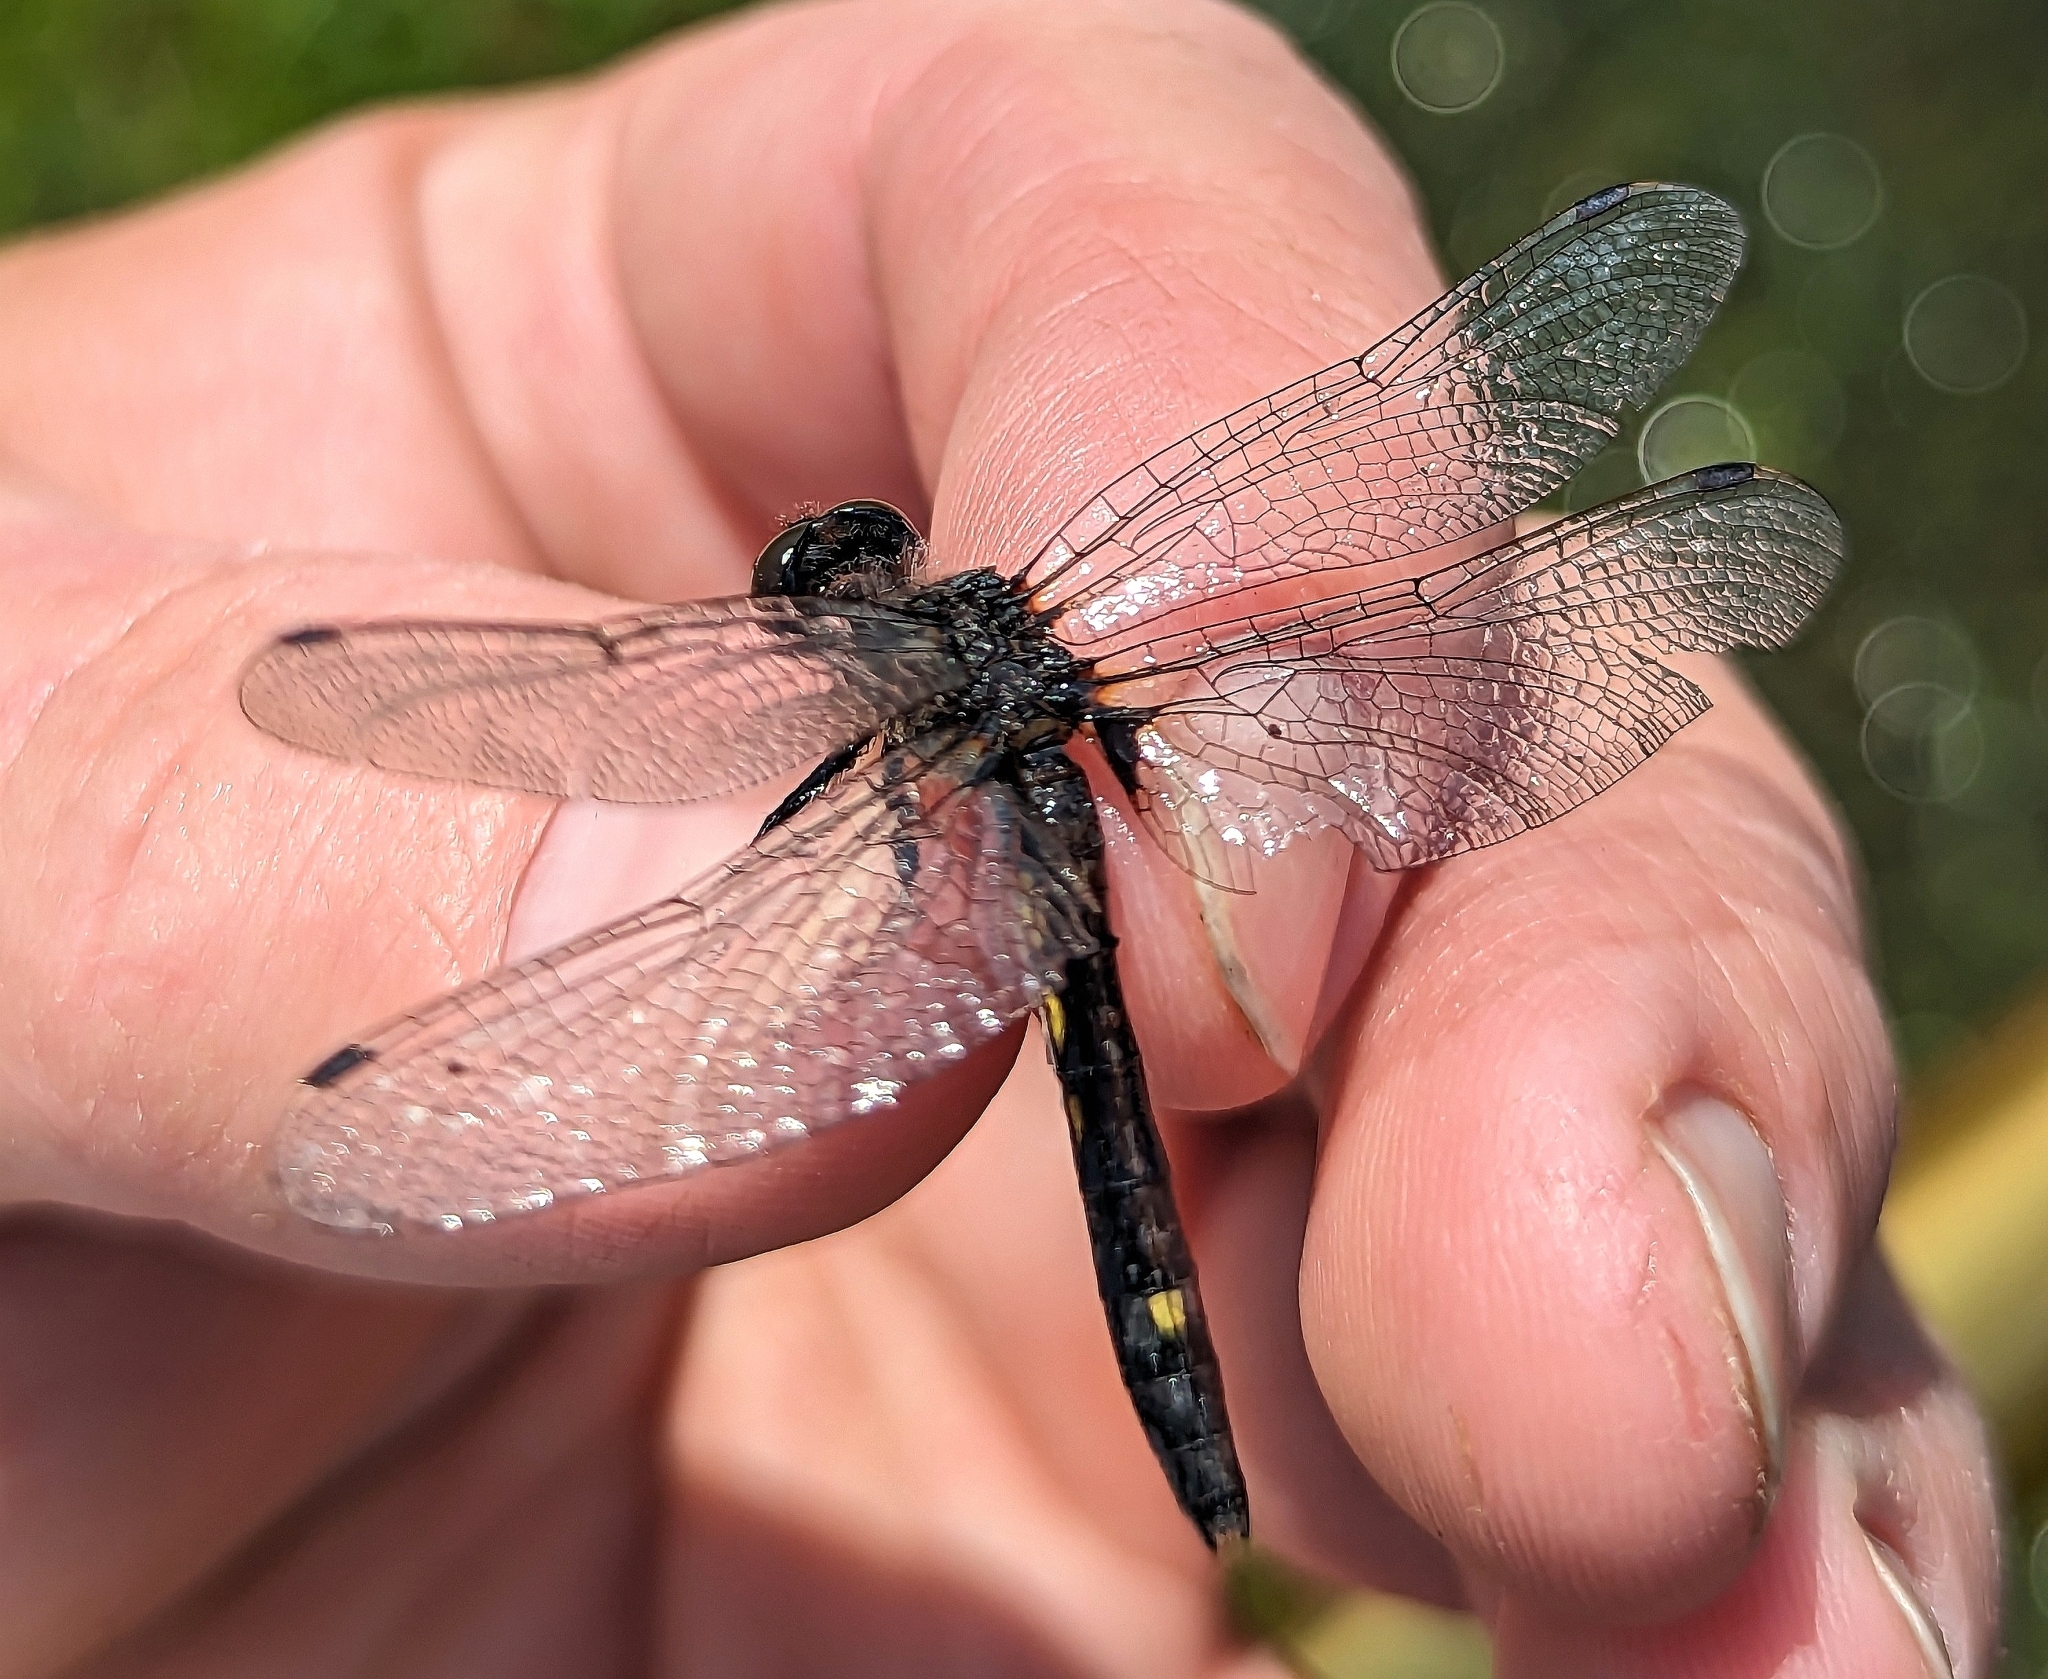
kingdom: Animalia
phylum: Arthropoda
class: Insecta
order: Odonata
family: Libellulidae
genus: Leucorrhinia
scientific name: Leucorrhinia intacta
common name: Dot-tailed whiteface
